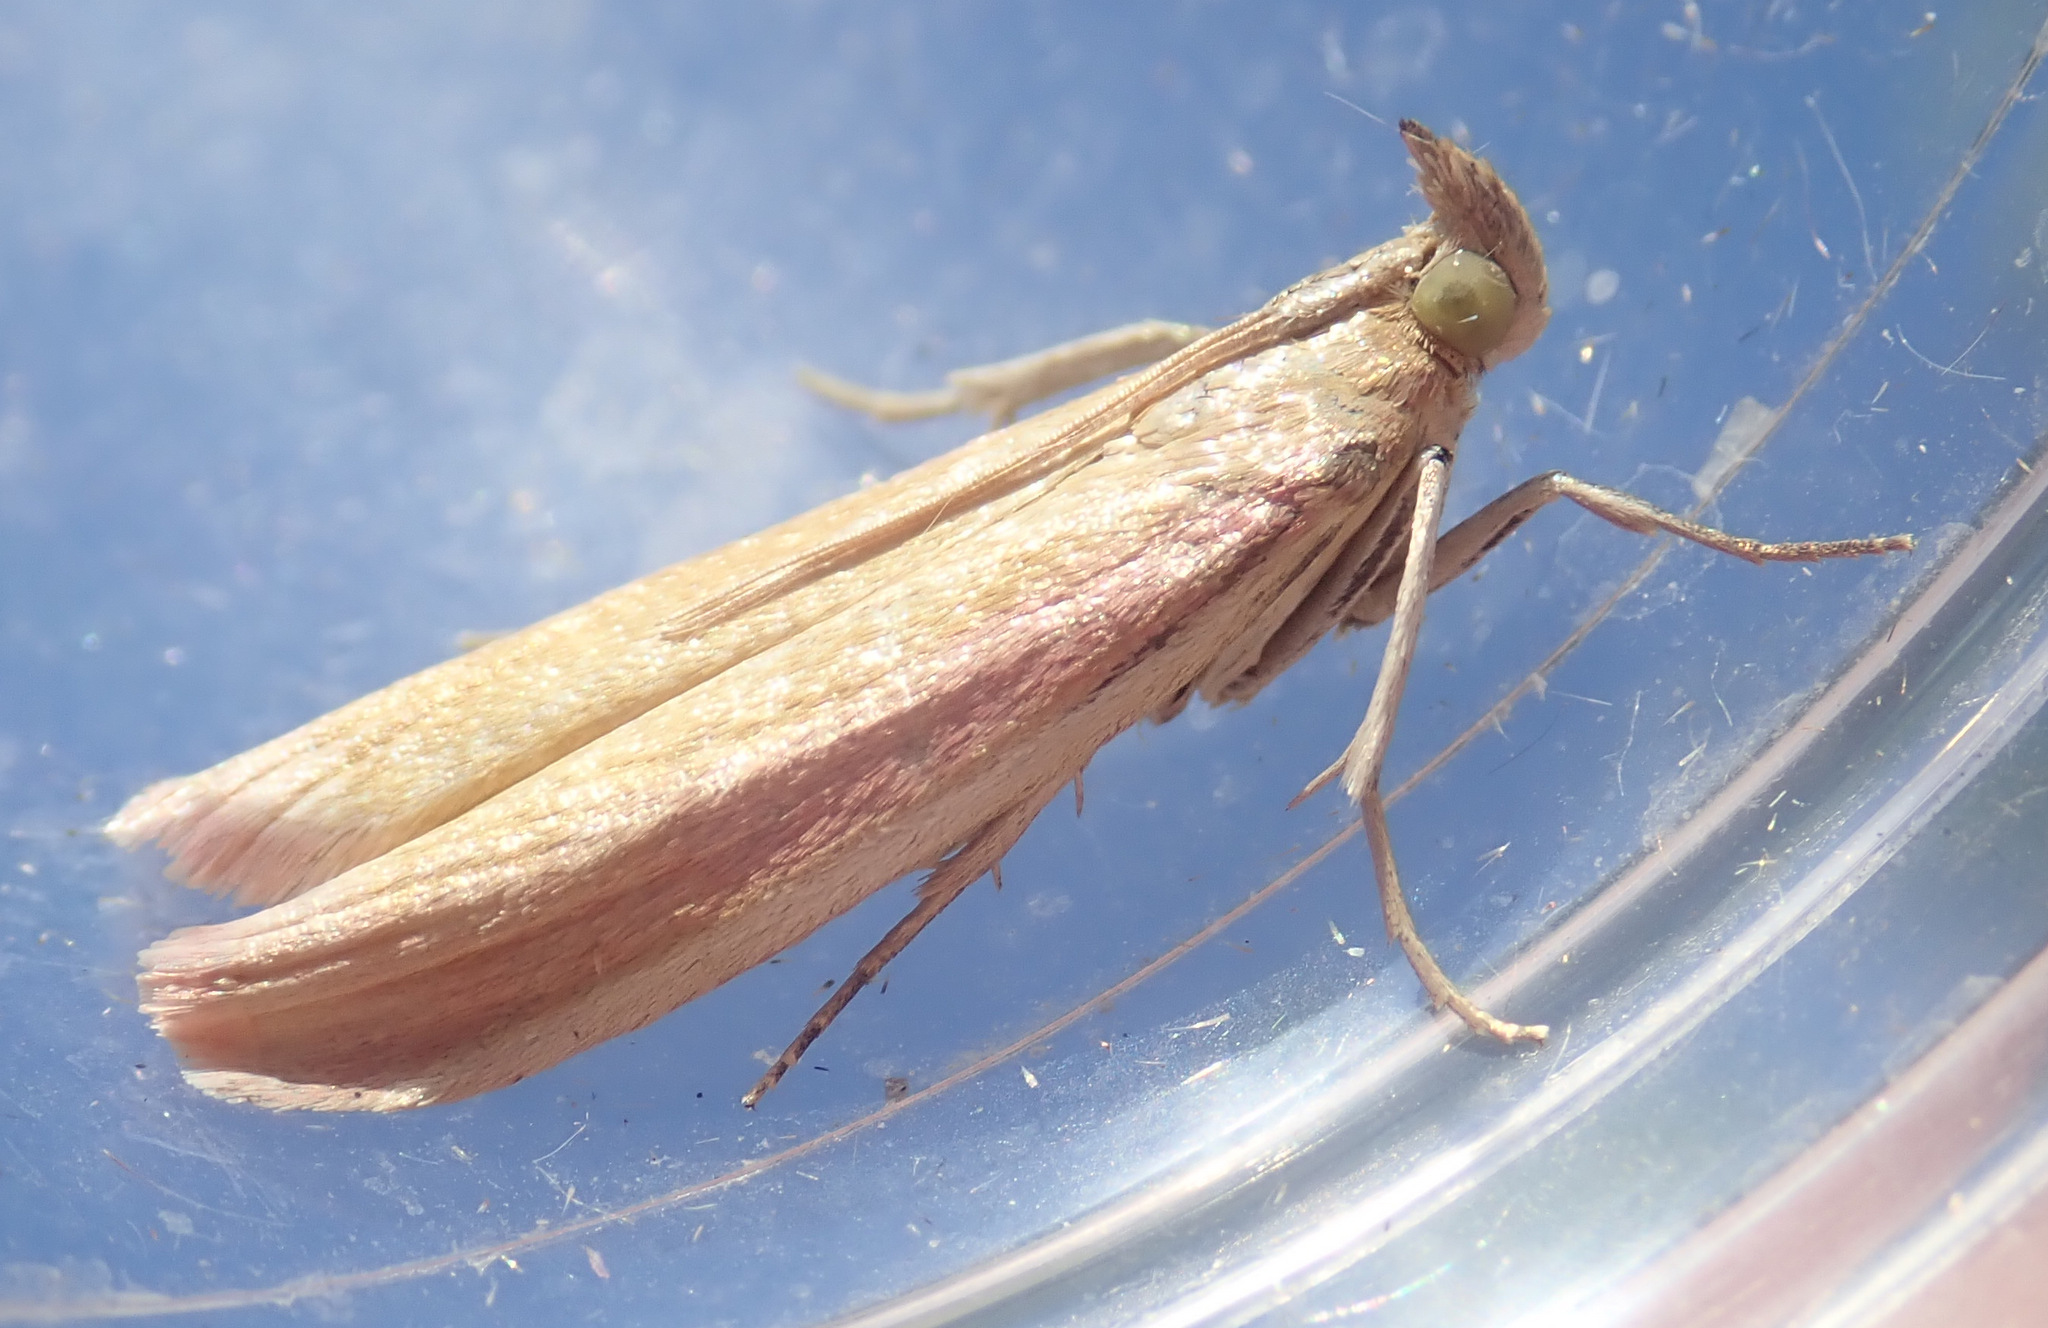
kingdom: Animalia
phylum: Arthropoda
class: Insecta
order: Lepidoptera
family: Pyralidae
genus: Oncocera
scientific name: Oncocera semirubella
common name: Rosy-striped knot-horn
